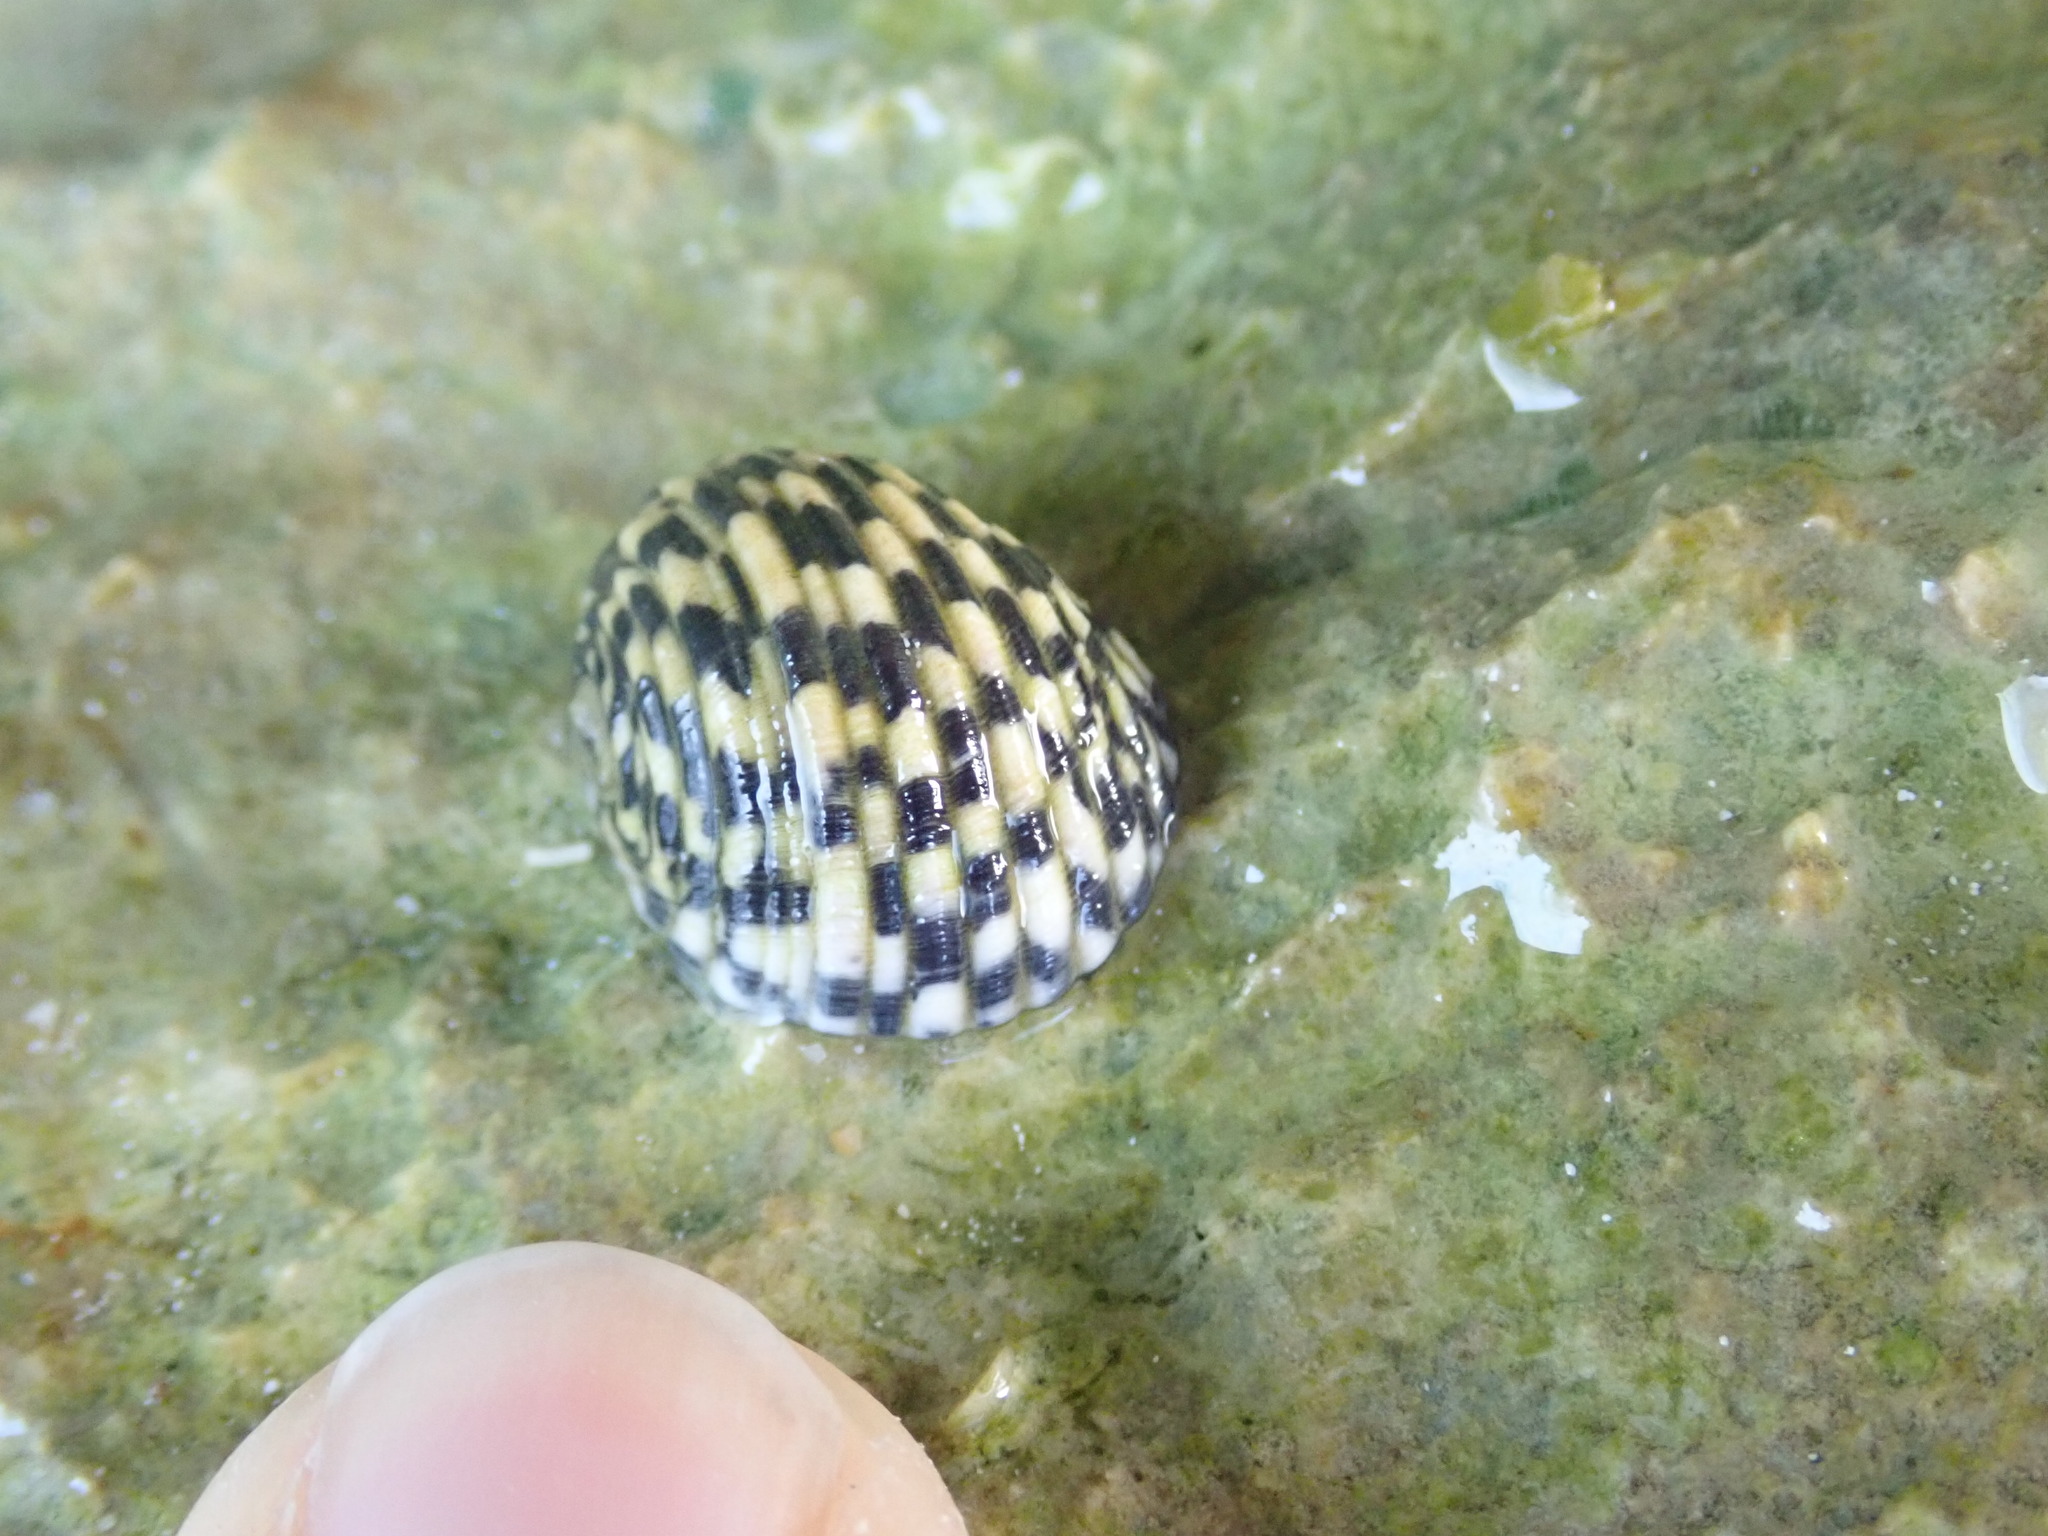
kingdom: Animalia
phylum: Mollusca
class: Gastropoda
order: Cycloneritida
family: Neritidae
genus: Nerita
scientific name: Nerita tessellata
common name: Checkered nerite
